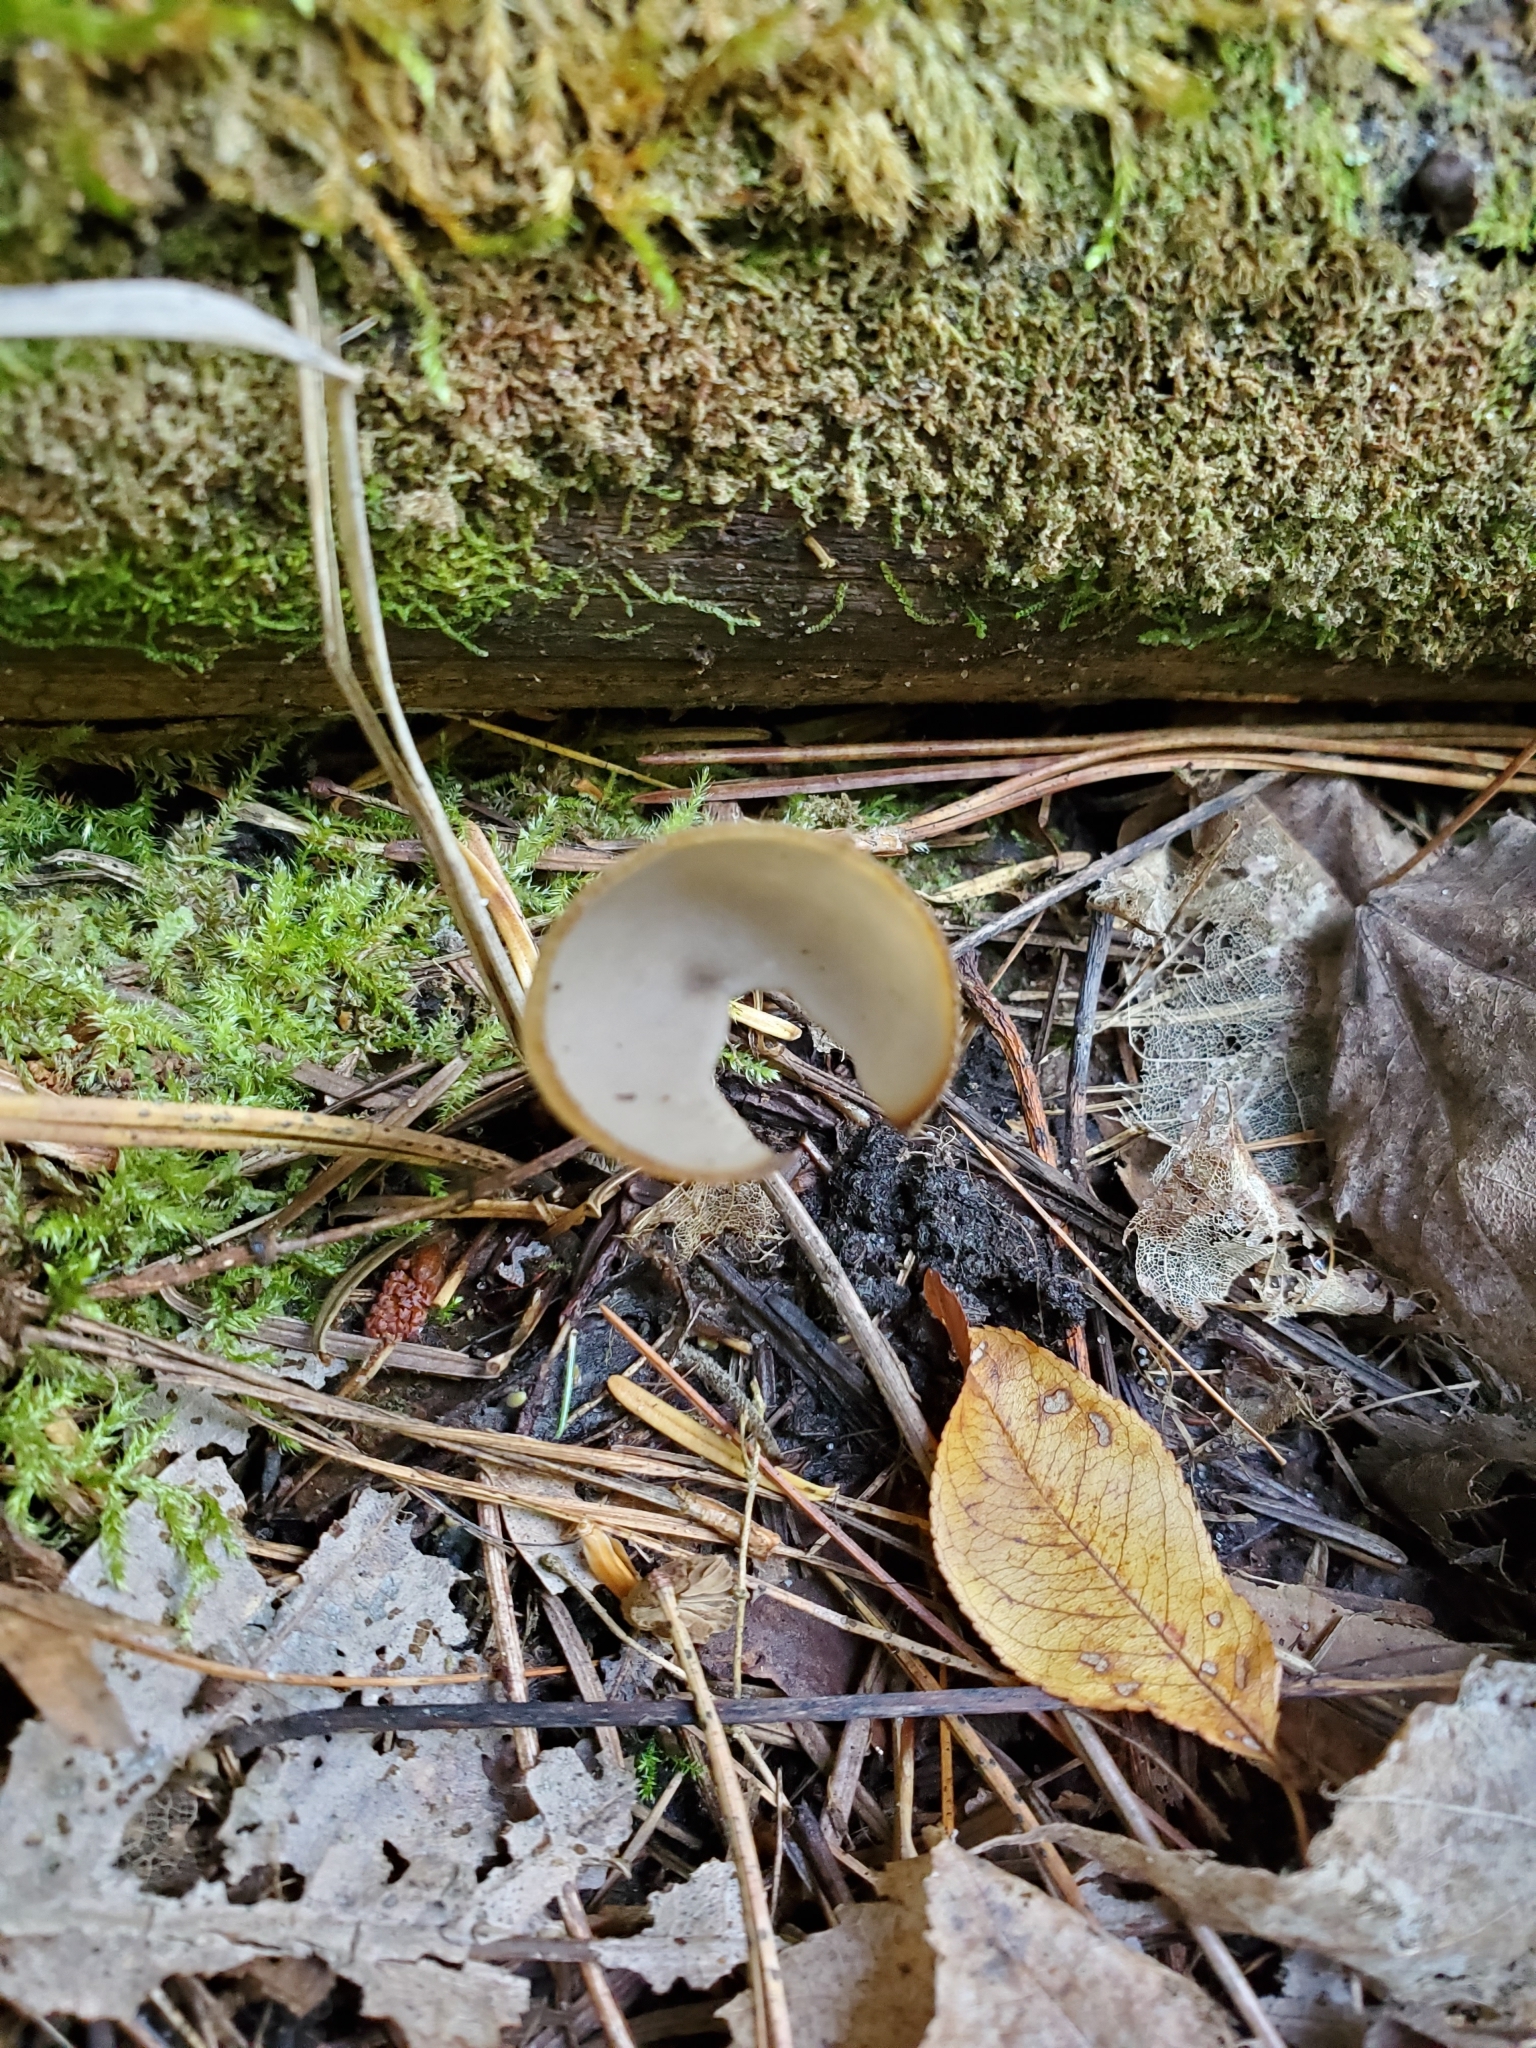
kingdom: Fungi
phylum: Ascomycota
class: Pezizomycetes
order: Pezizales
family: Helvellaceae
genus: Helvella
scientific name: Helvella macropus
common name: Felt saddle
